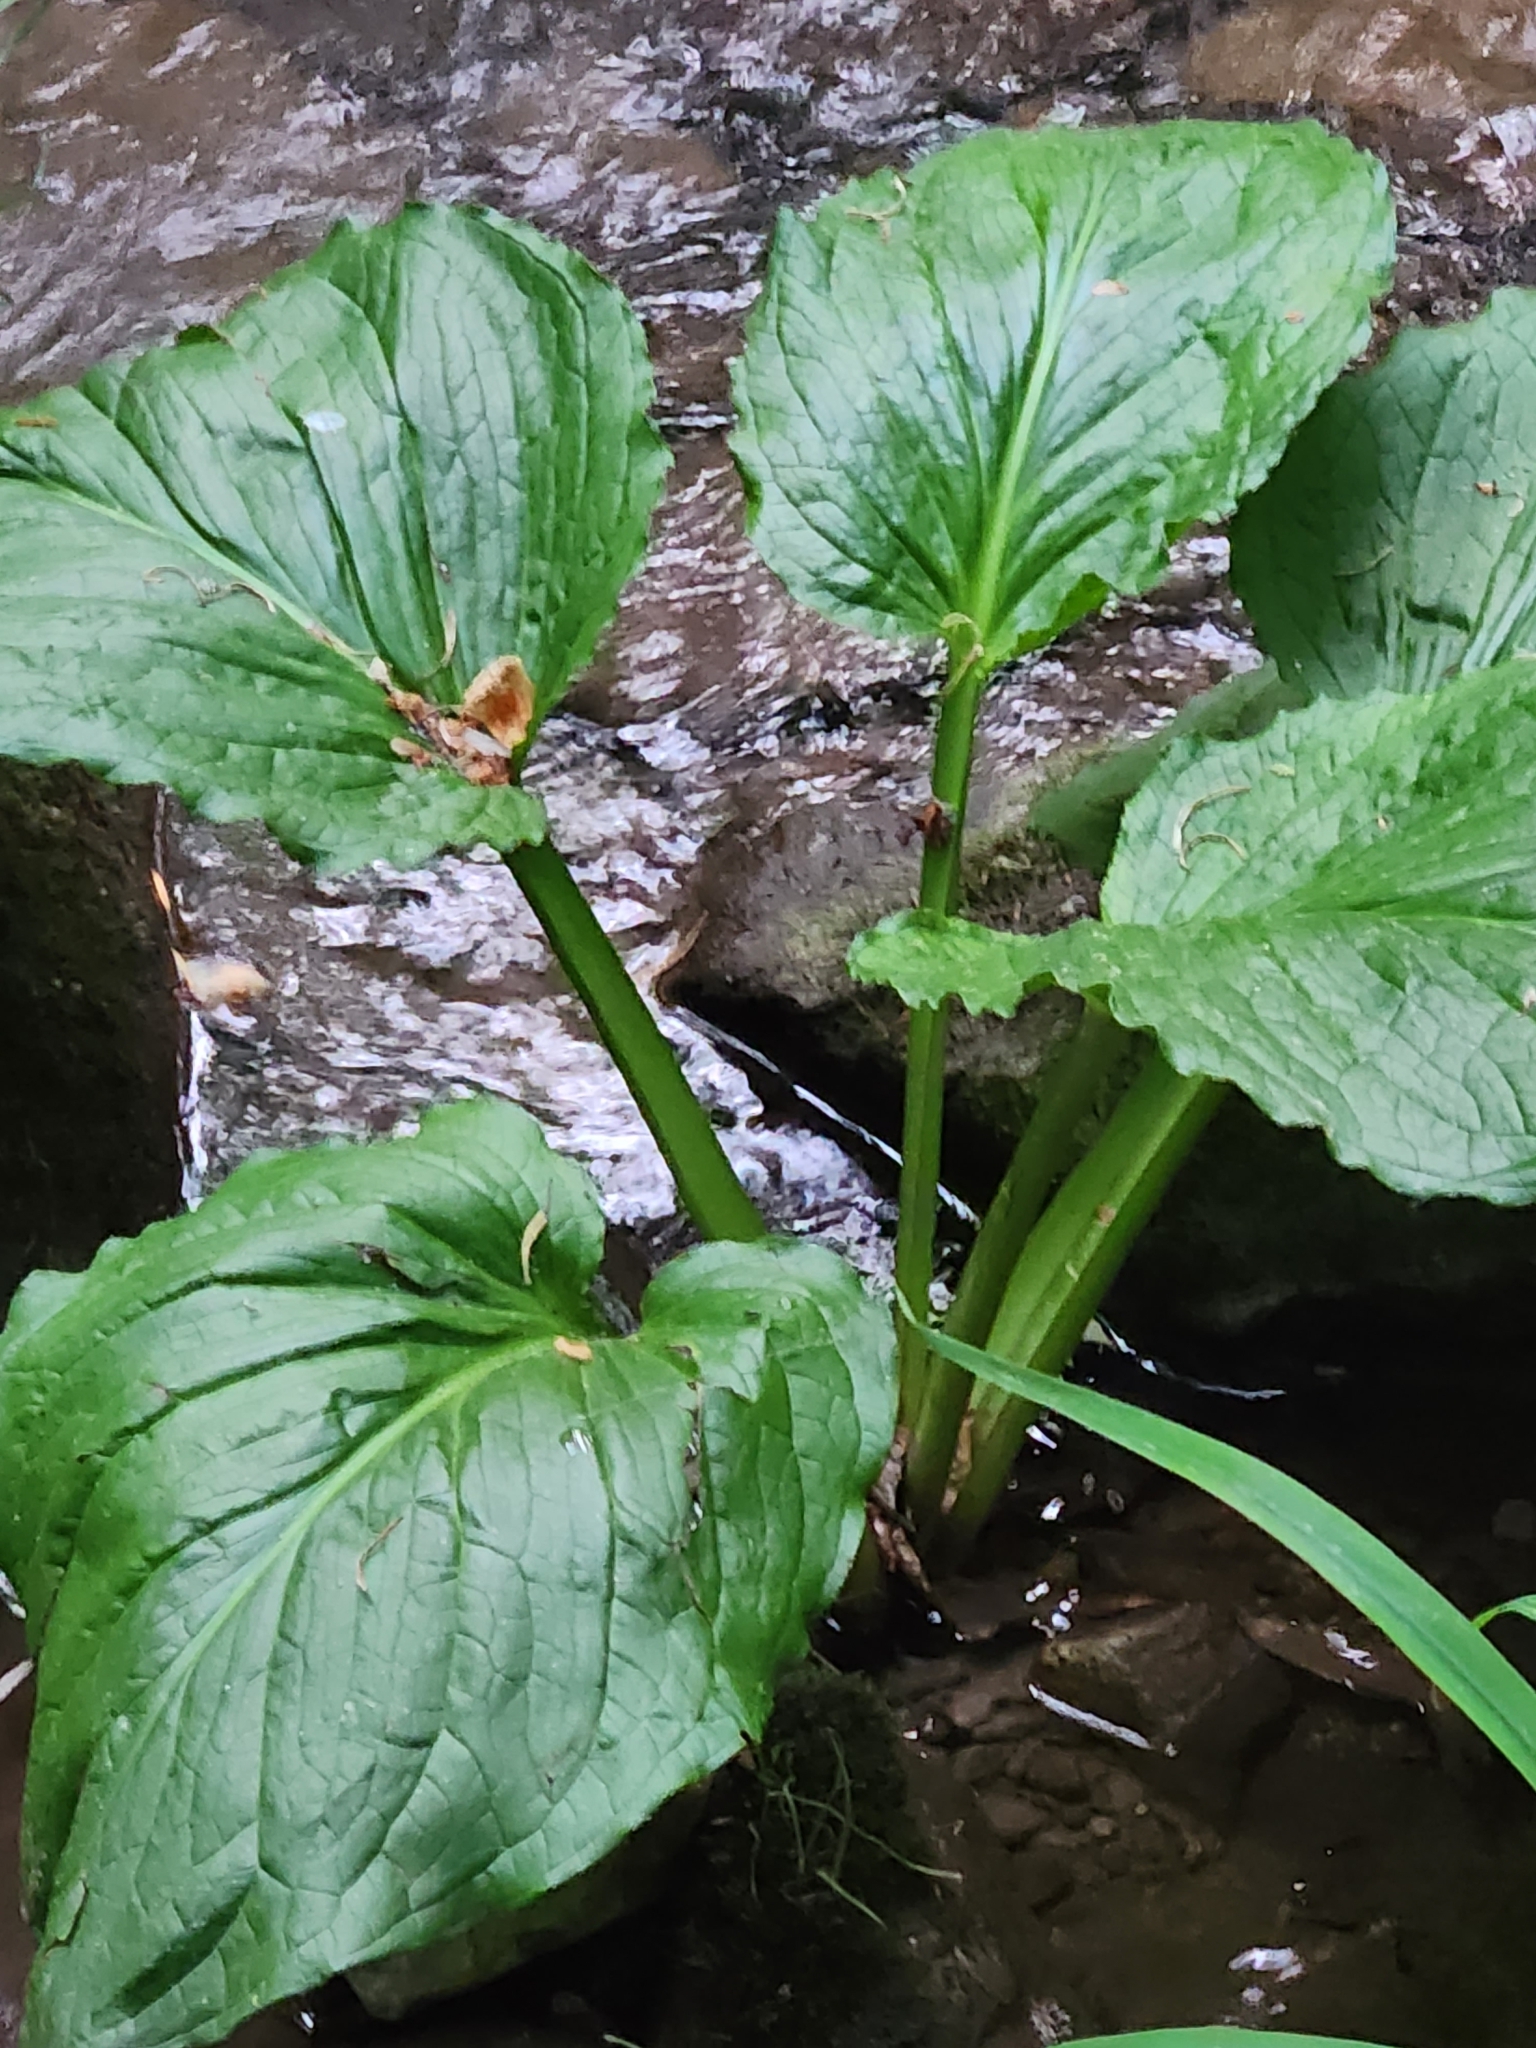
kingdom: Plantae
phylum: Tracheophyta
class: Liliopsida
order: Alismatales
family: Araceae
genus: Symplocarpus
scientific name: Symplocarpus foetidus
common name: Eastern skunk cabbage
